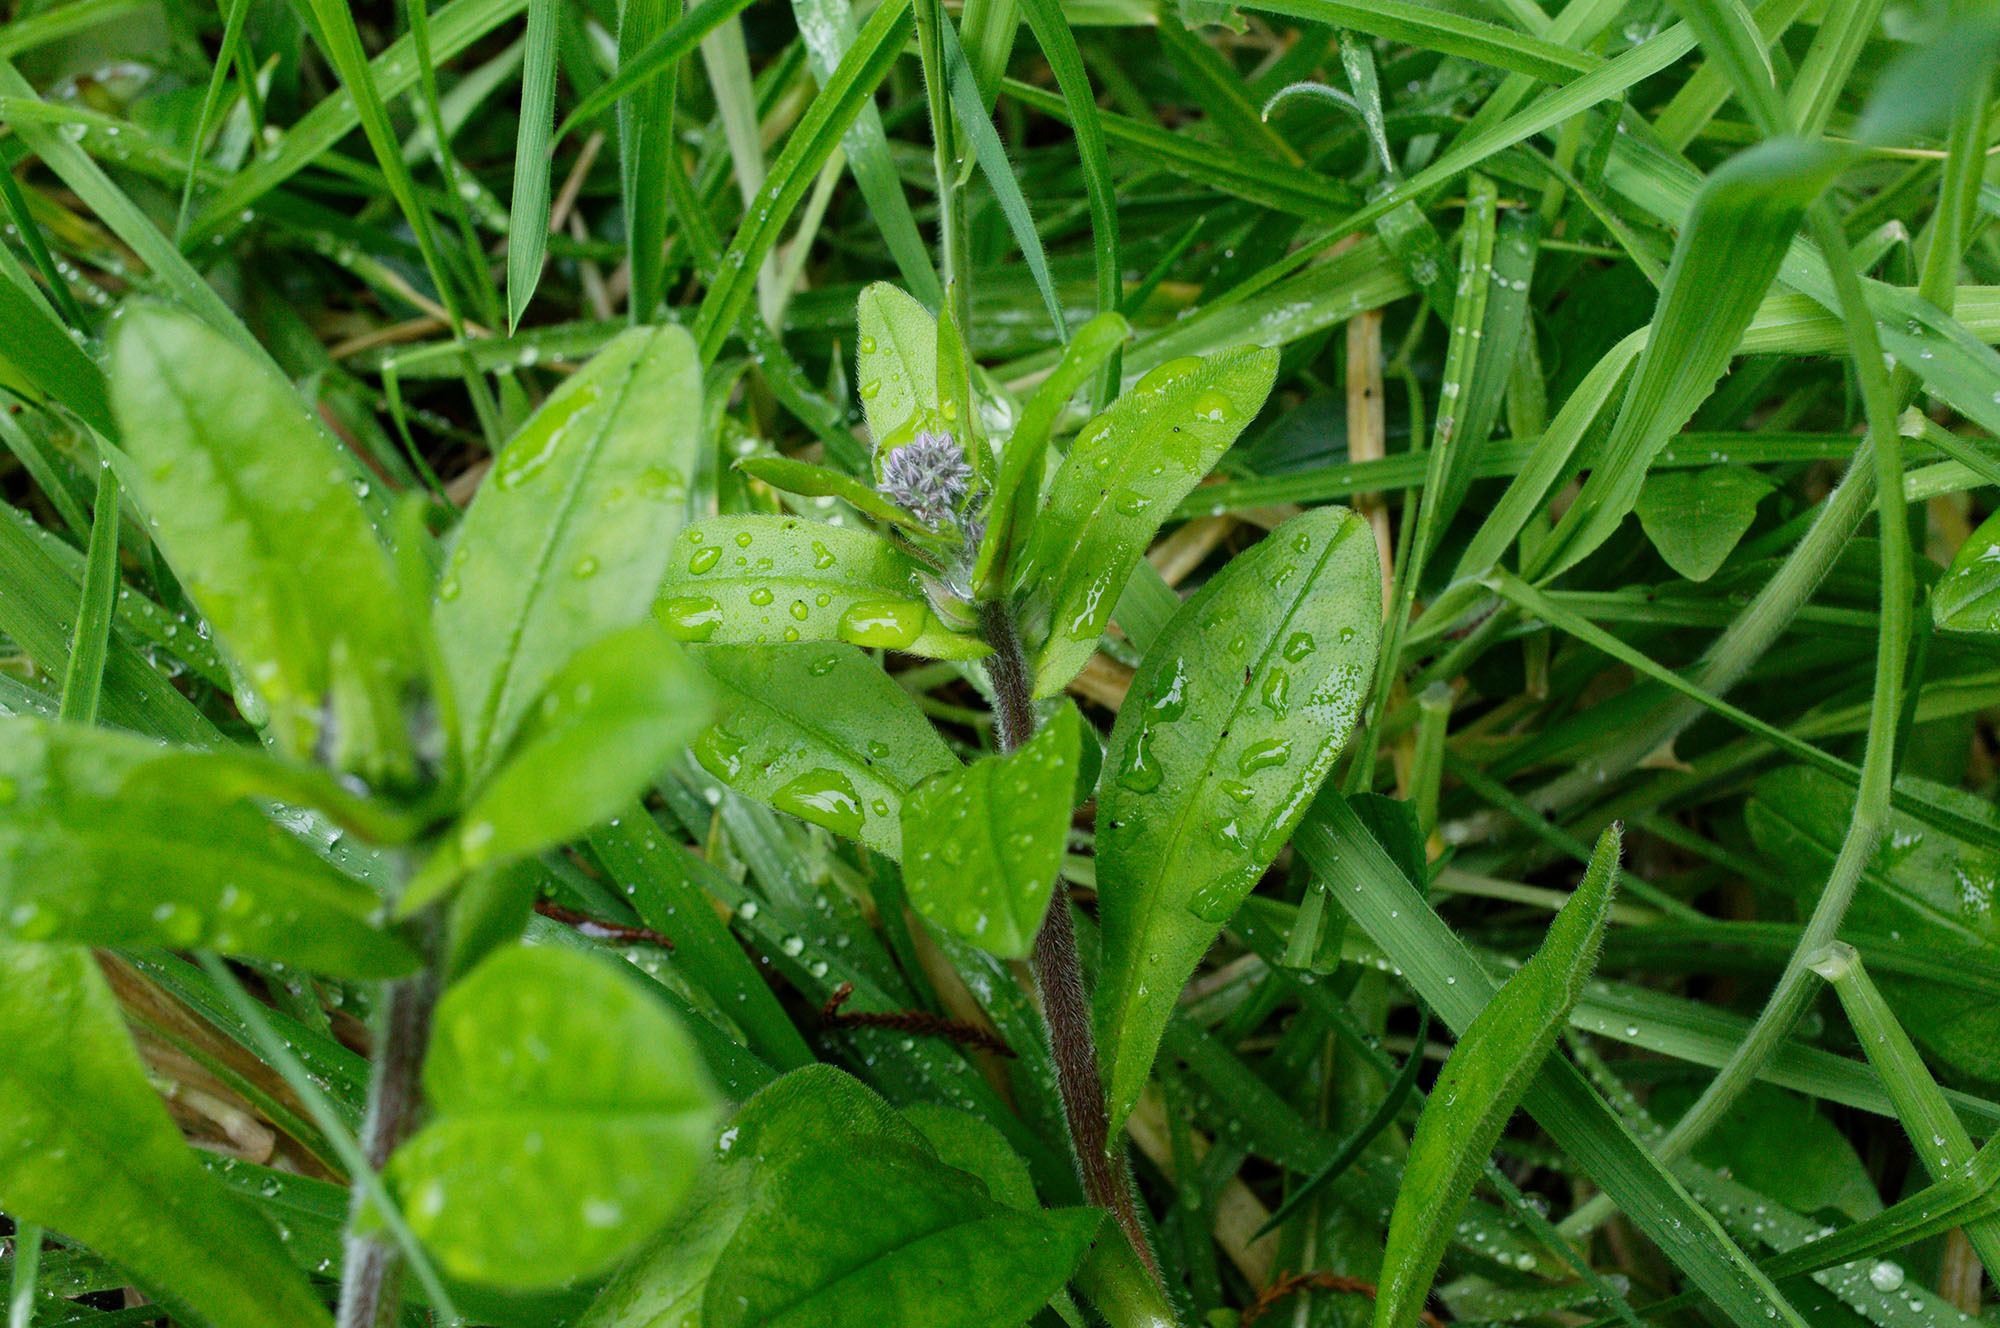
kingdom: Plantae
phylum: Tracheophyta
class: Magnoliopsida
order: Boraginales
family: Boraginaceae
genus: Myosotis
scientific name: Myosotis sylvatica
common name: Wood forget-me-not
